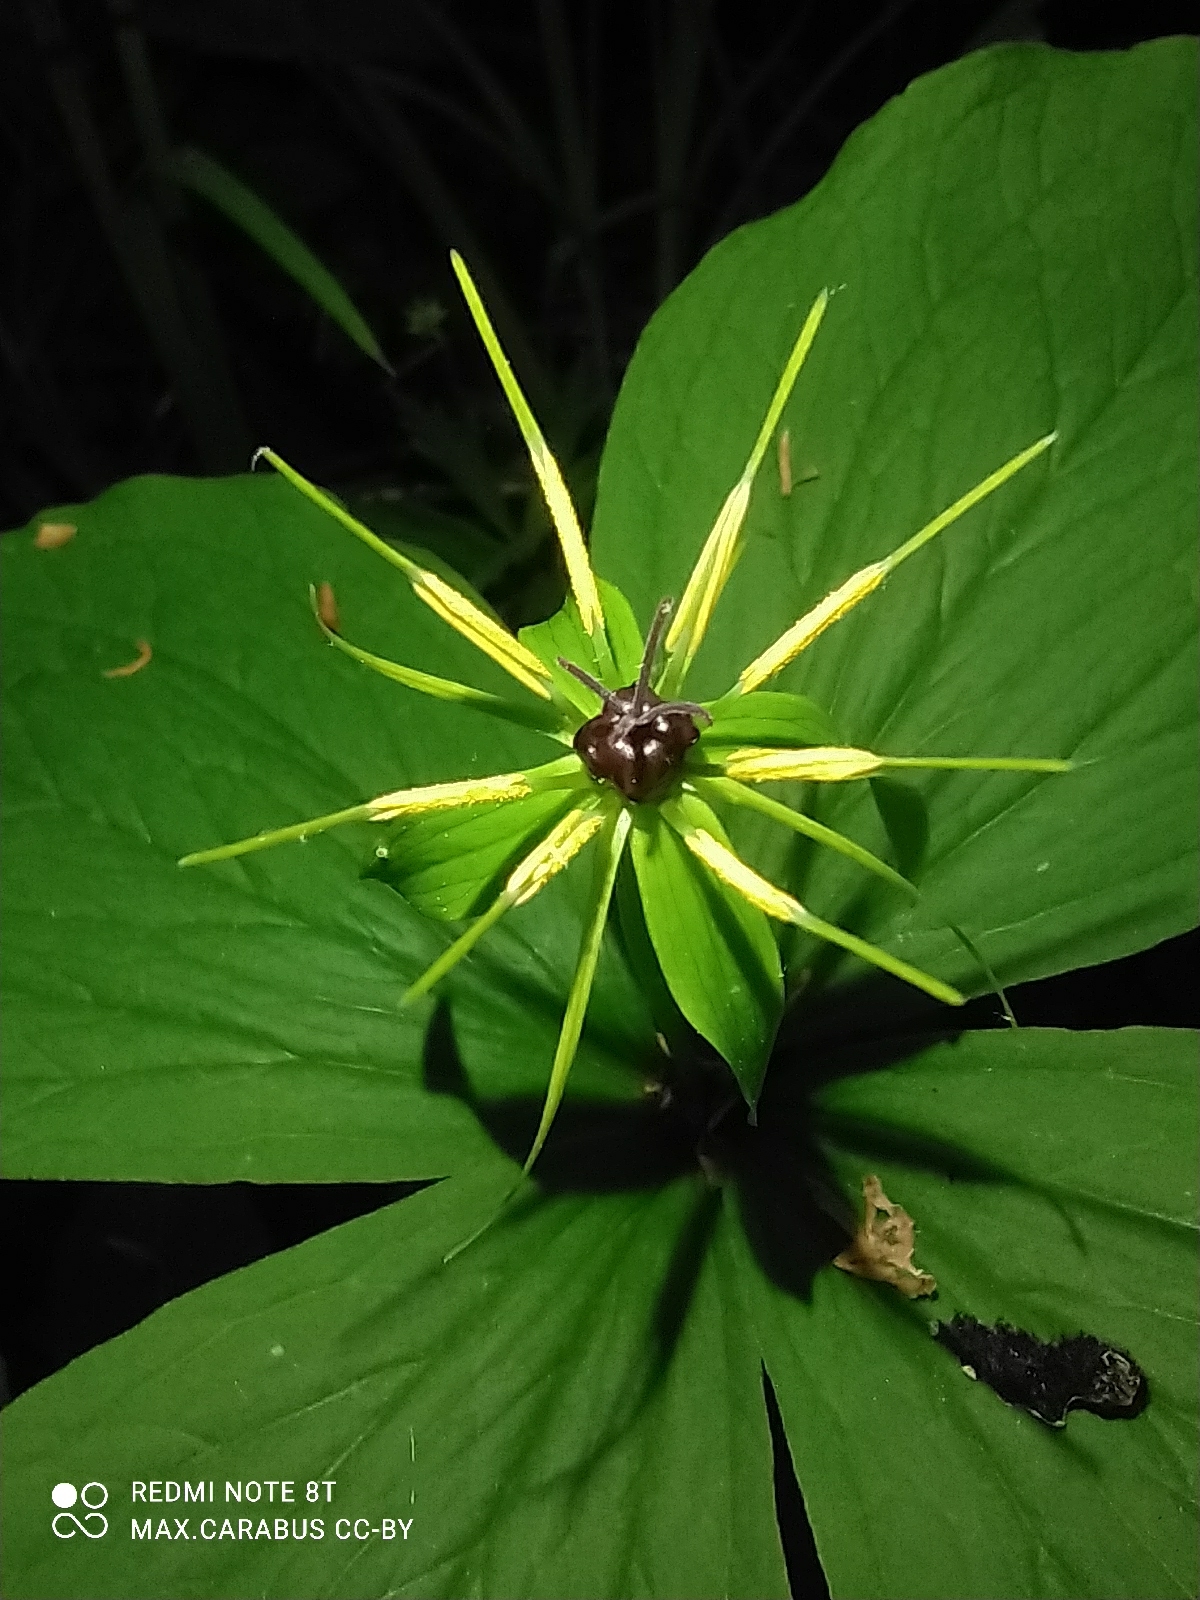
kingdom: Plantae
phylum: Tracheophyta
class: Liliopsida
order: Liliales
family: Melanthiaceae
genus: Paris
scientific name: Paris quadrifolia
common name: Herb-paris
